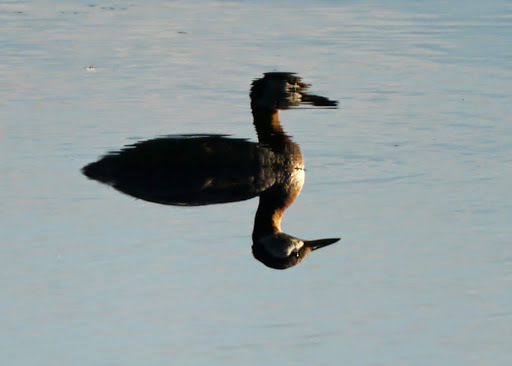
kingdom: Animalia
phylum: Chordata
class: Aves
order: Podicipediformes
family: Podicipedidae
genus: Podiceps
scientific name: Podiceps grisegena
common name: Red-necked grebe
